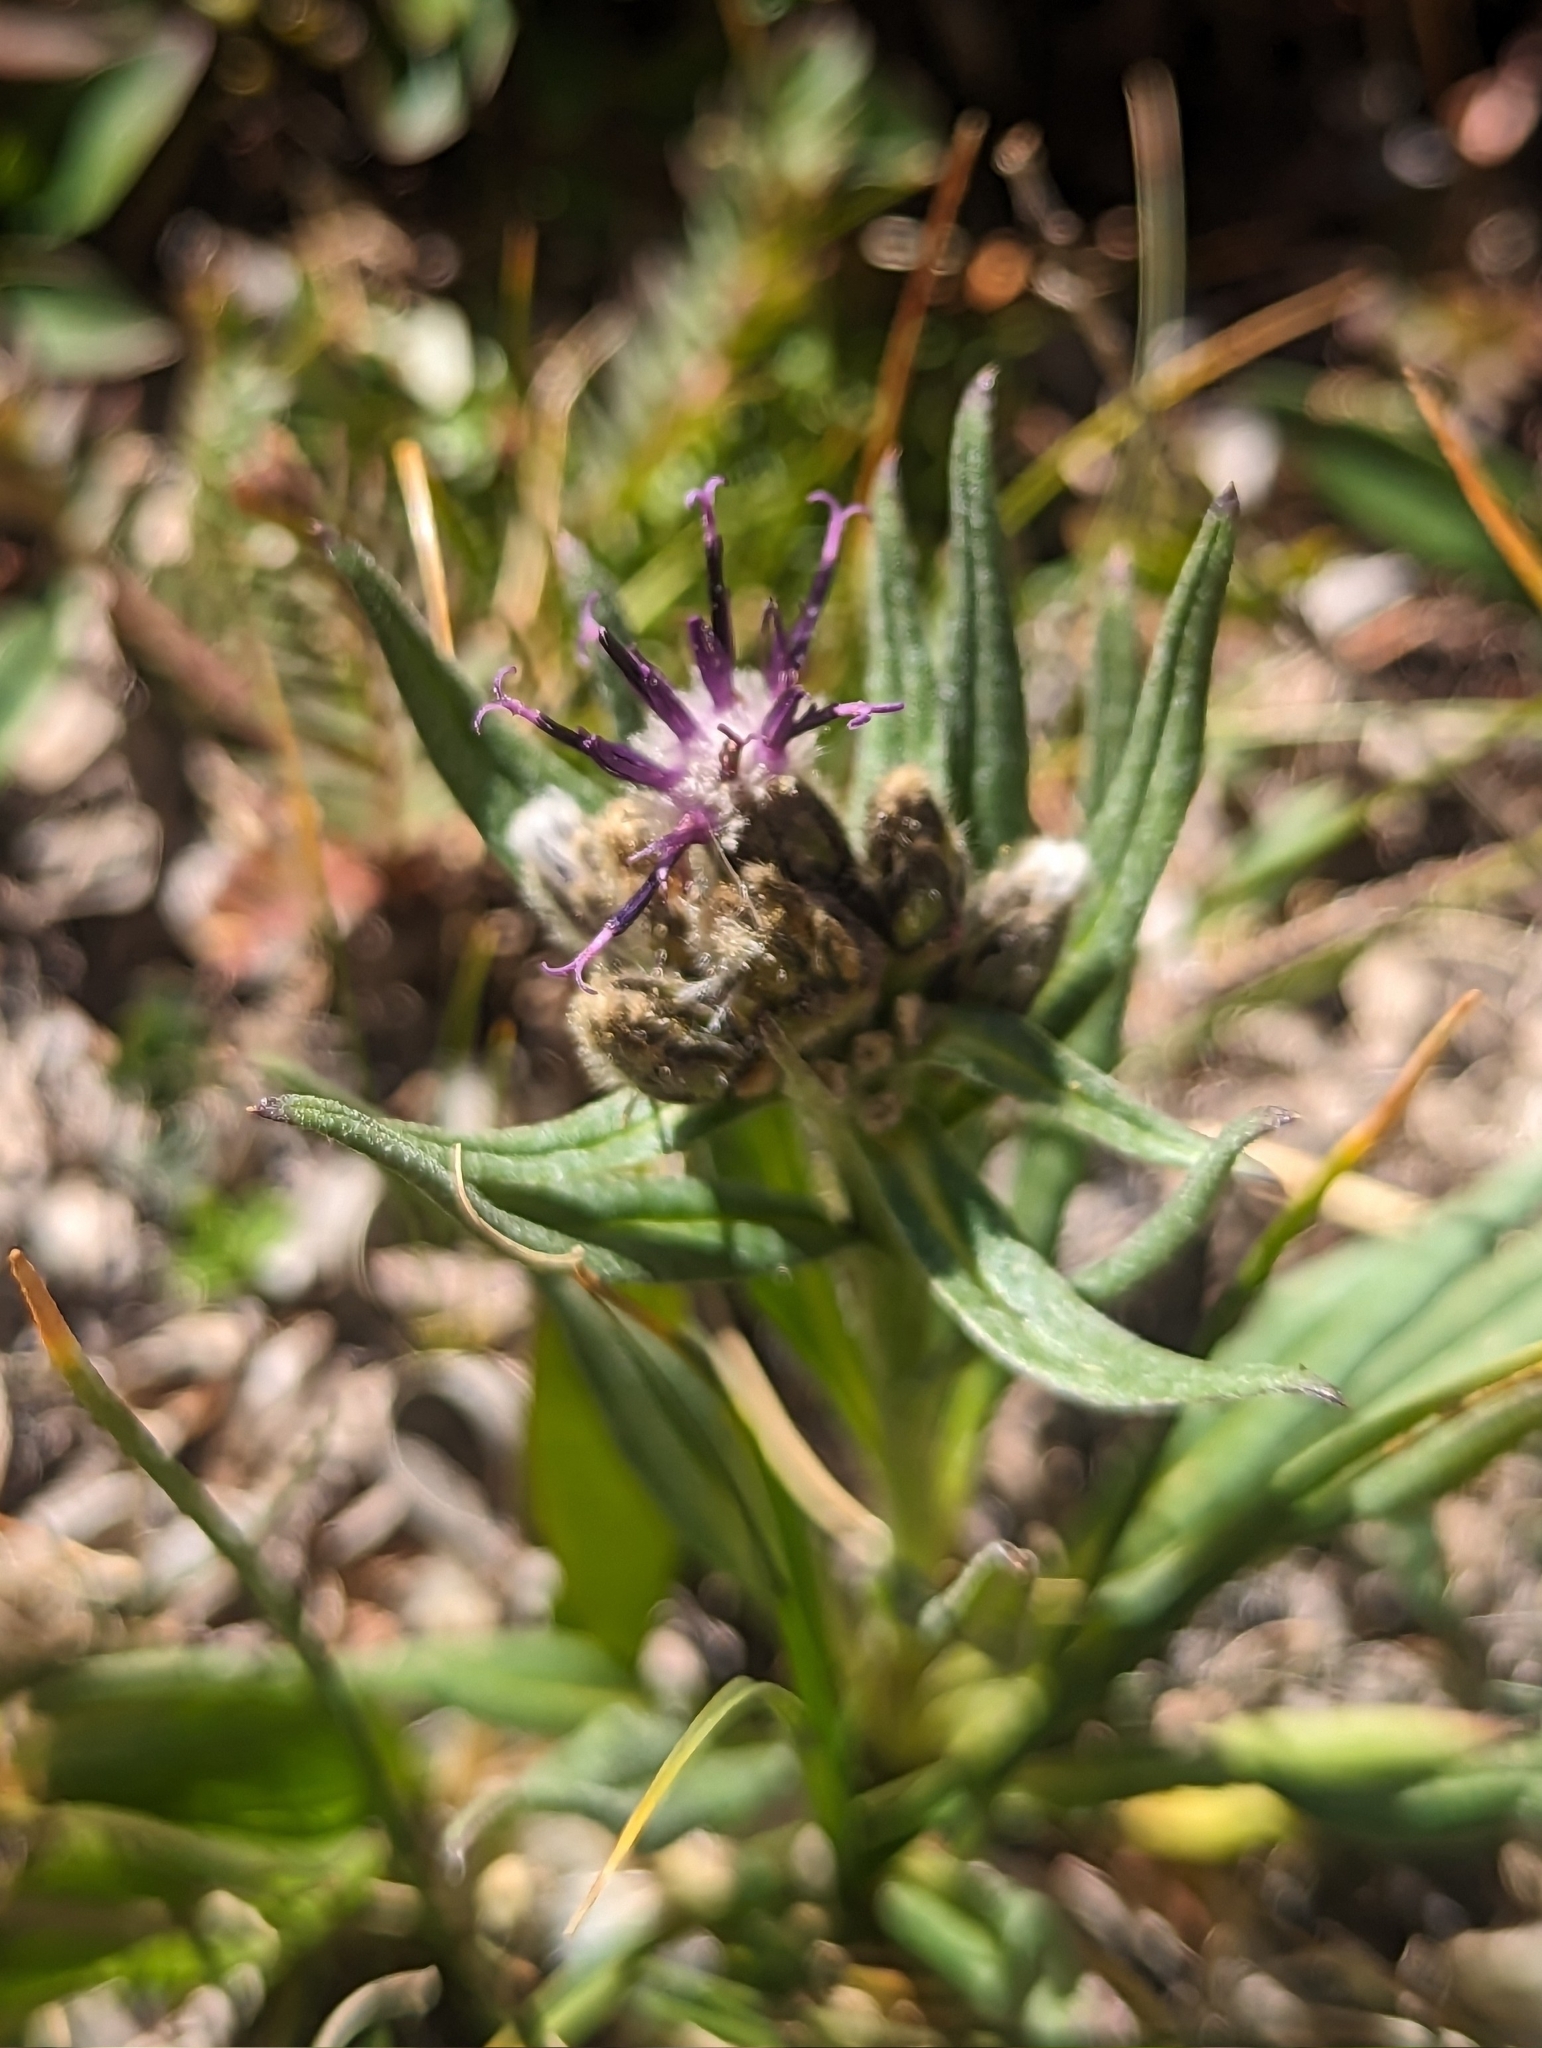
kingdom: Plantae
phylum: Tracheophyta
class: Magnoliopsida
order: Asterales
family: Asteraceae
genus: Saussurea
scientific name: Saussurea weberi
